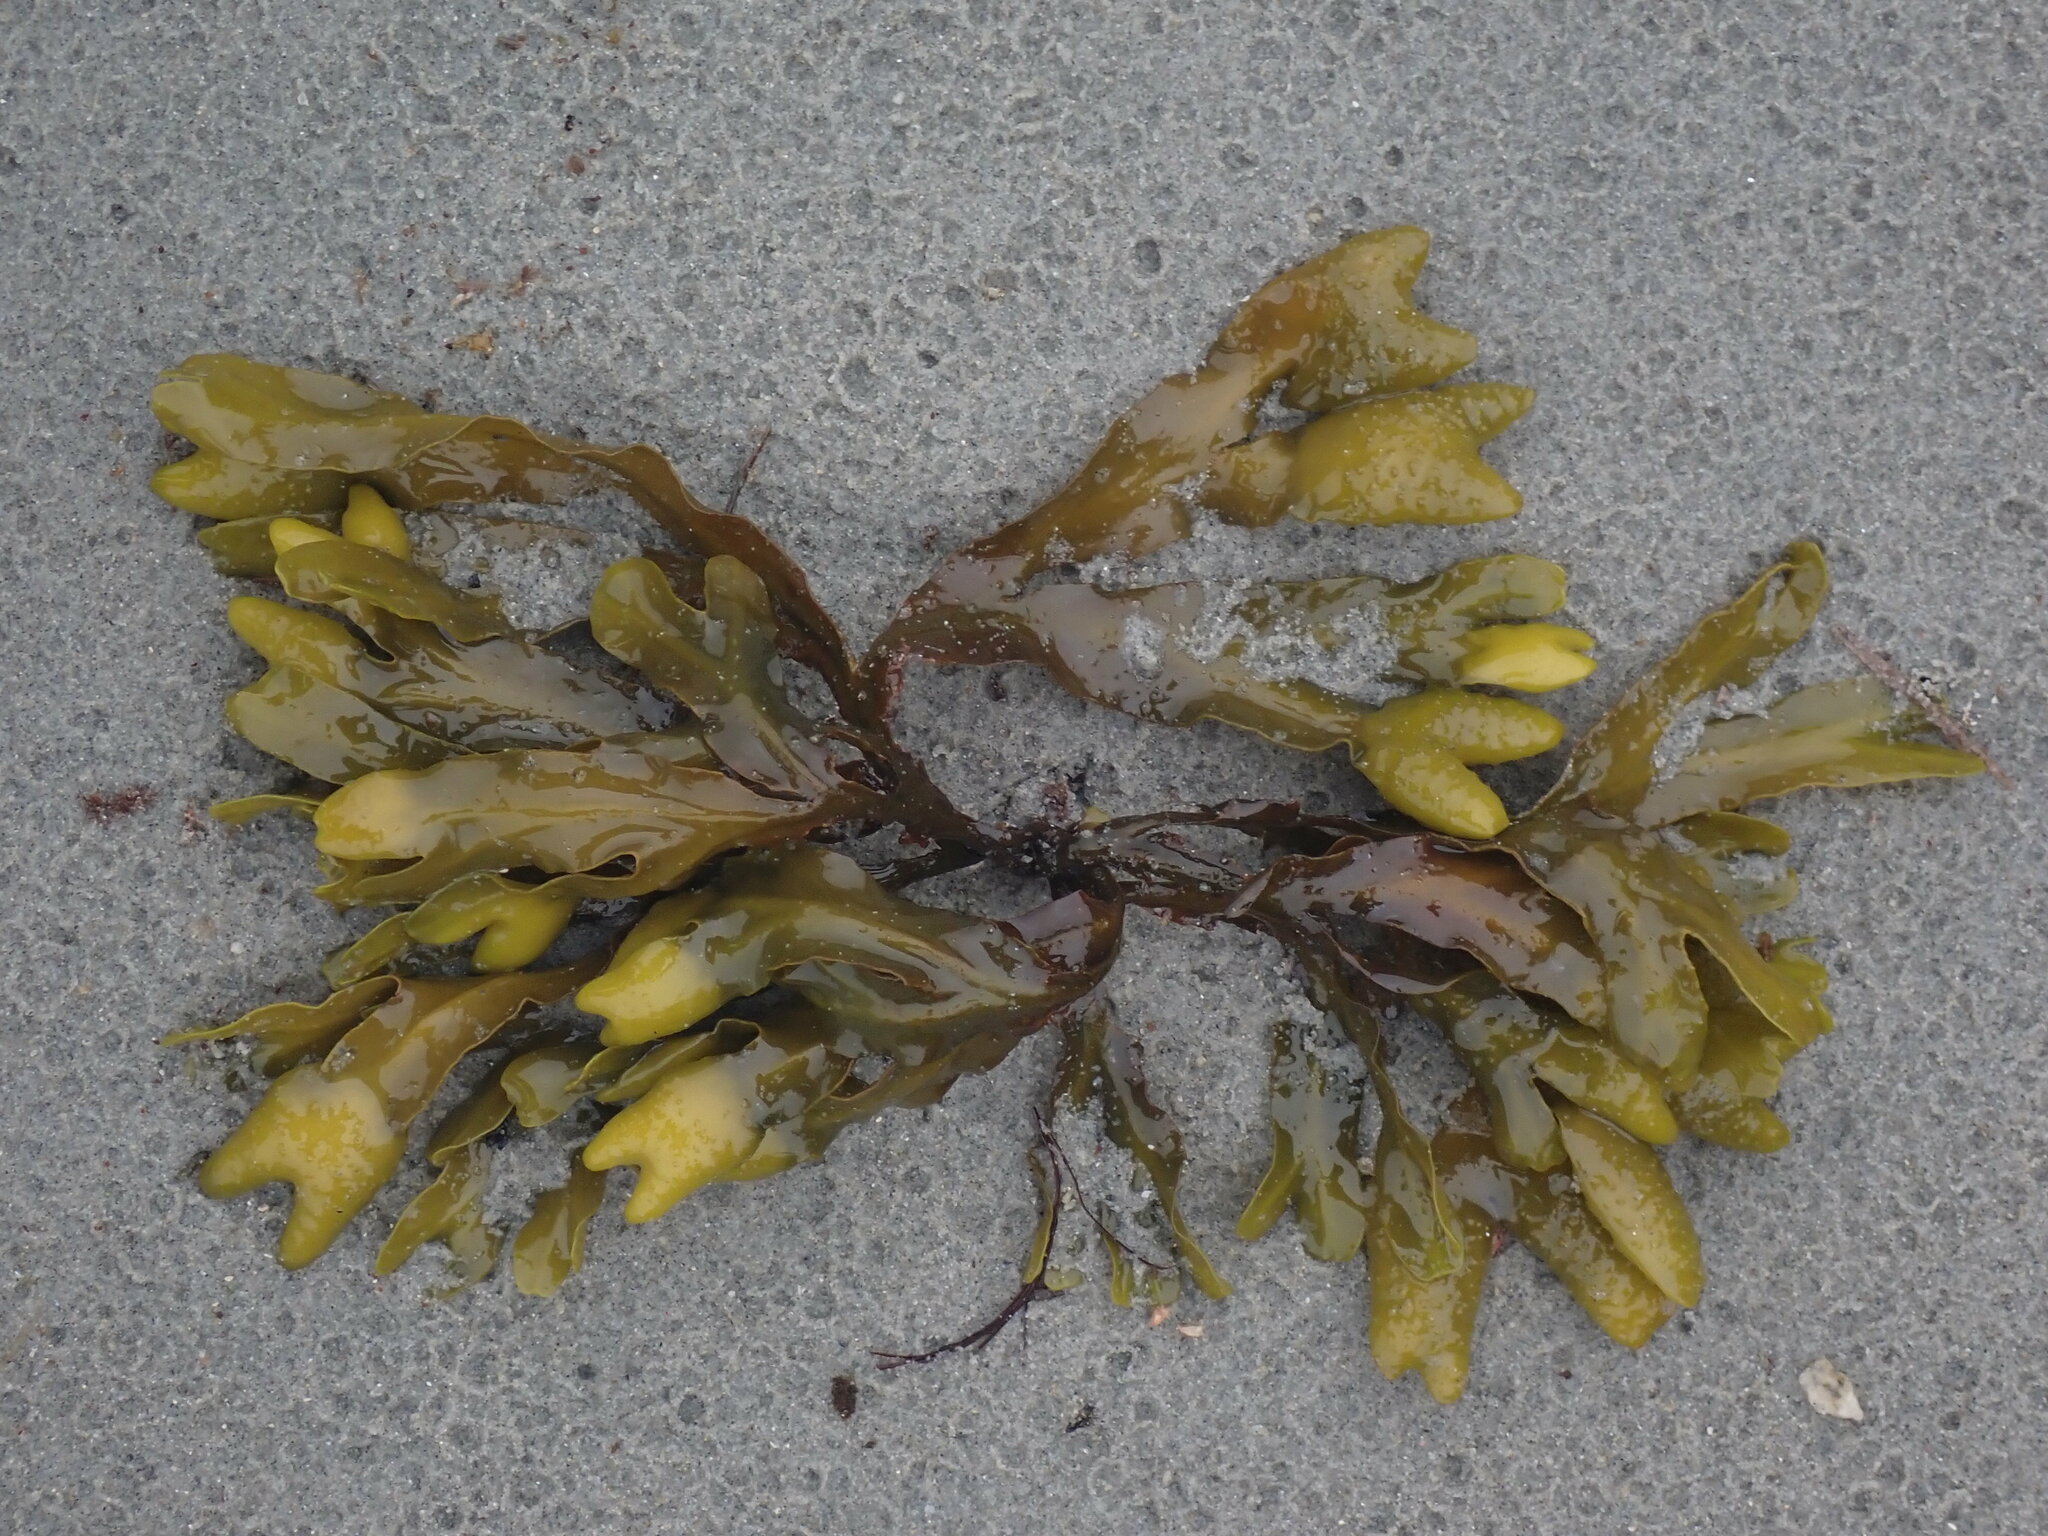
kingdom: Chromista
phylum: Ochrophyta
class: Phaeophyceae
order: Fucales
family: Fucaceae
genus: Fucus
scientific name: Fucus distichus
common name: Rockweed
